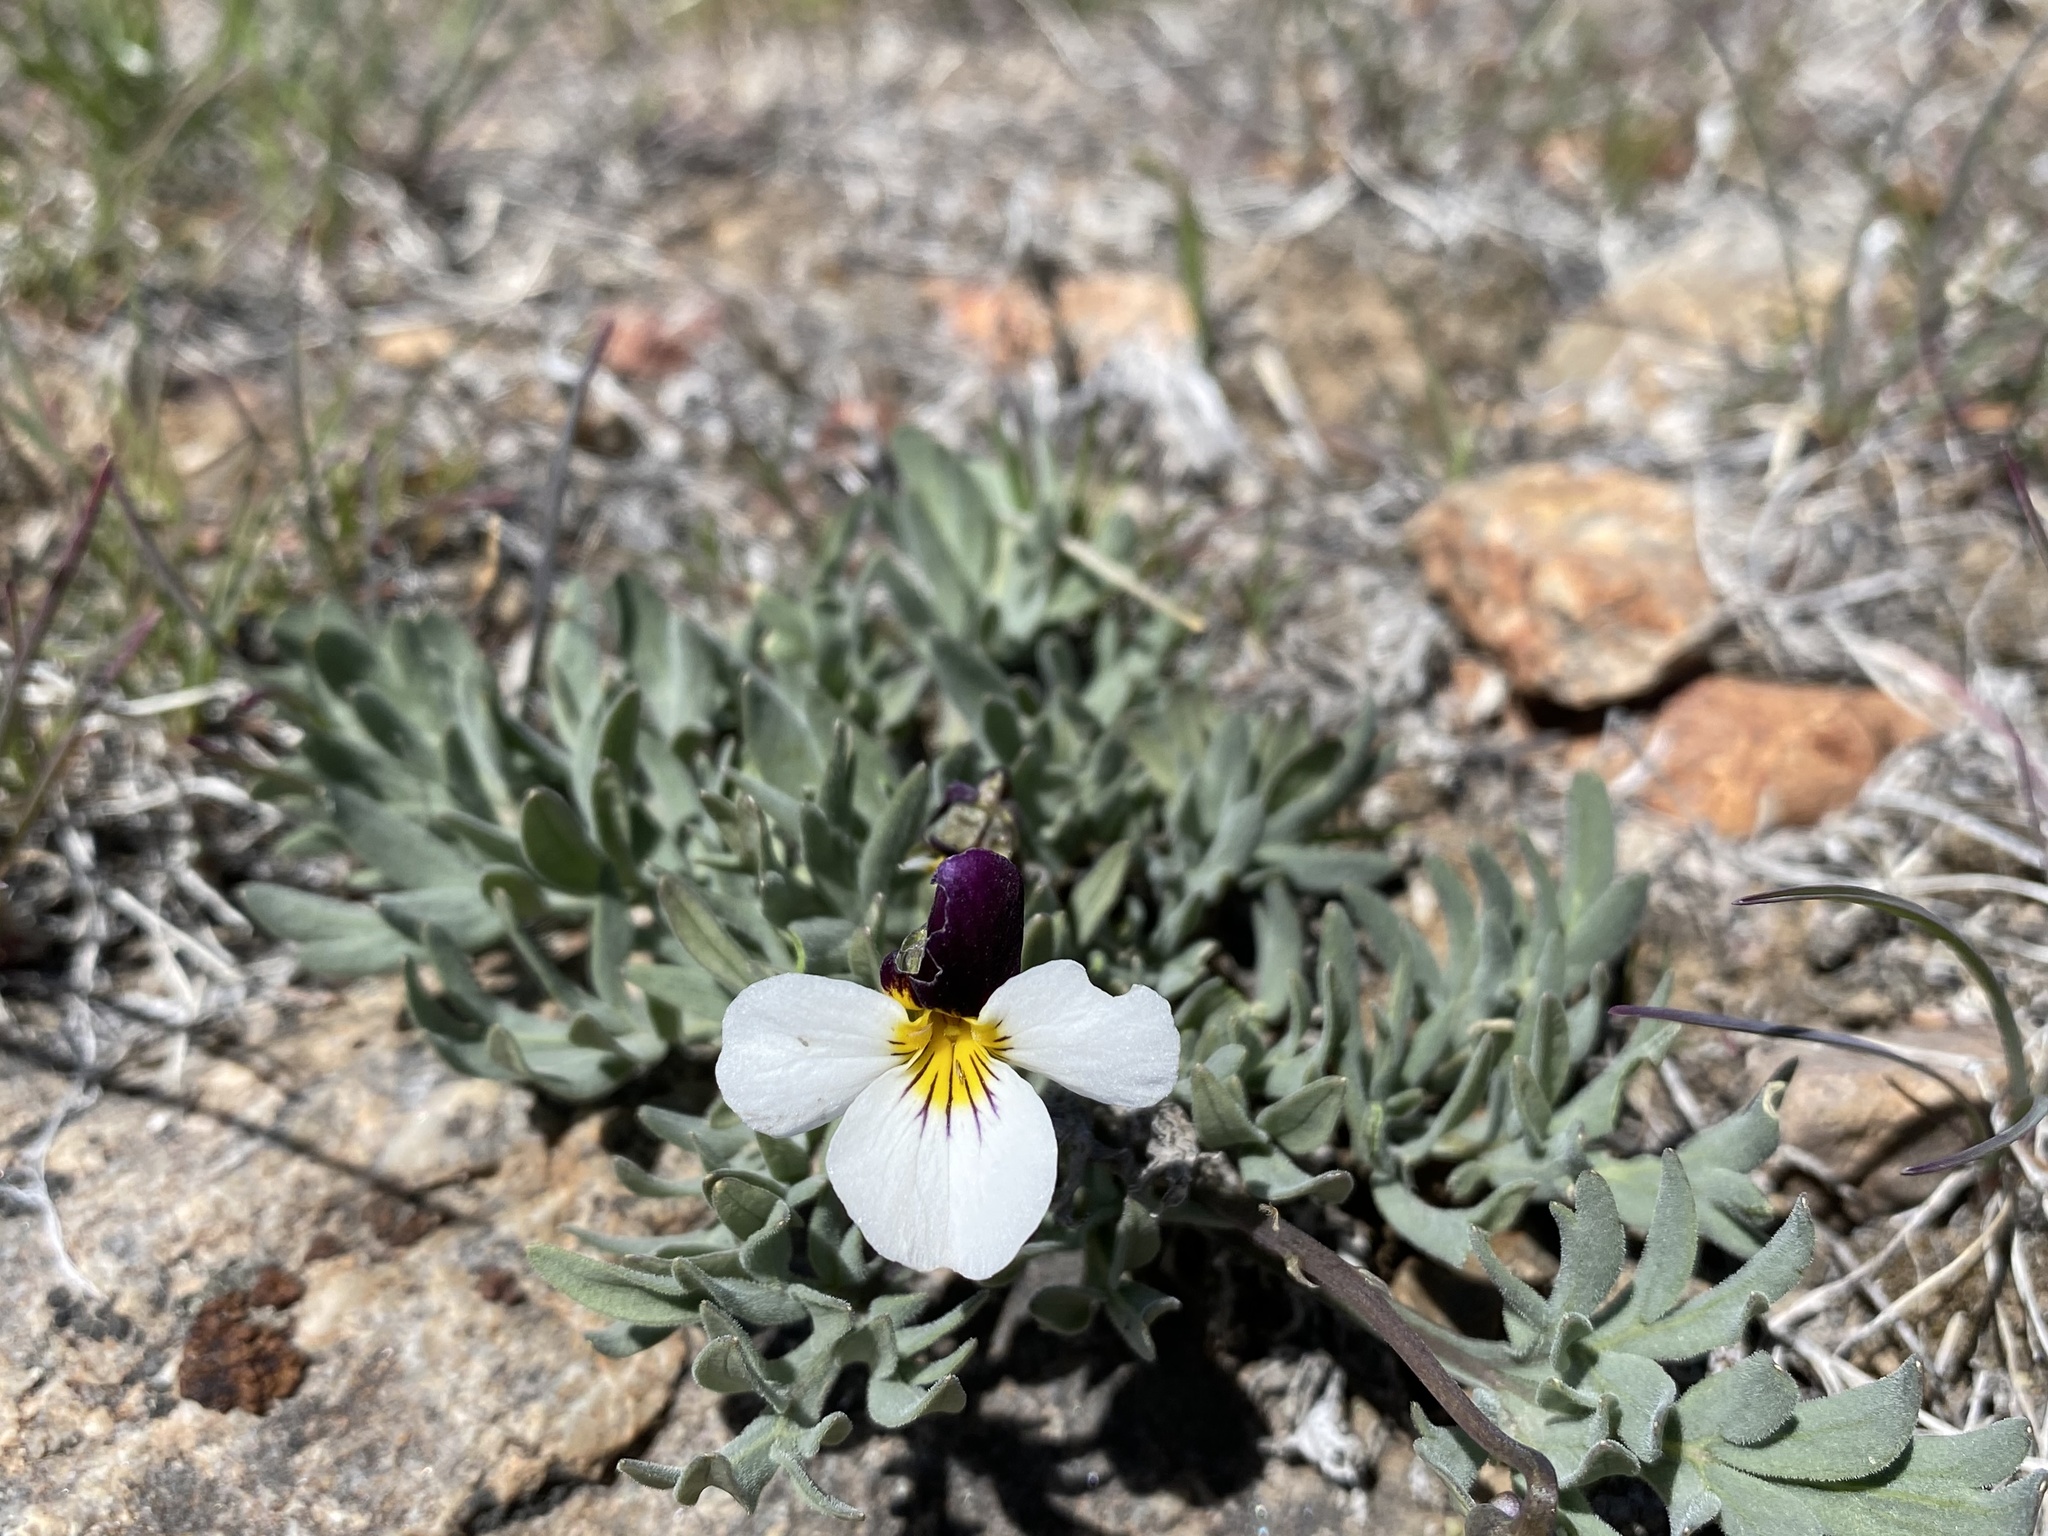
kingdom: Plantae
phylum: Tracheophyta
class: Magnoliopsida
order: Malpighiales
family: Violaceae
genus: Viola
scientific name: Viola beckwithii
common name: Beckwith's violet
